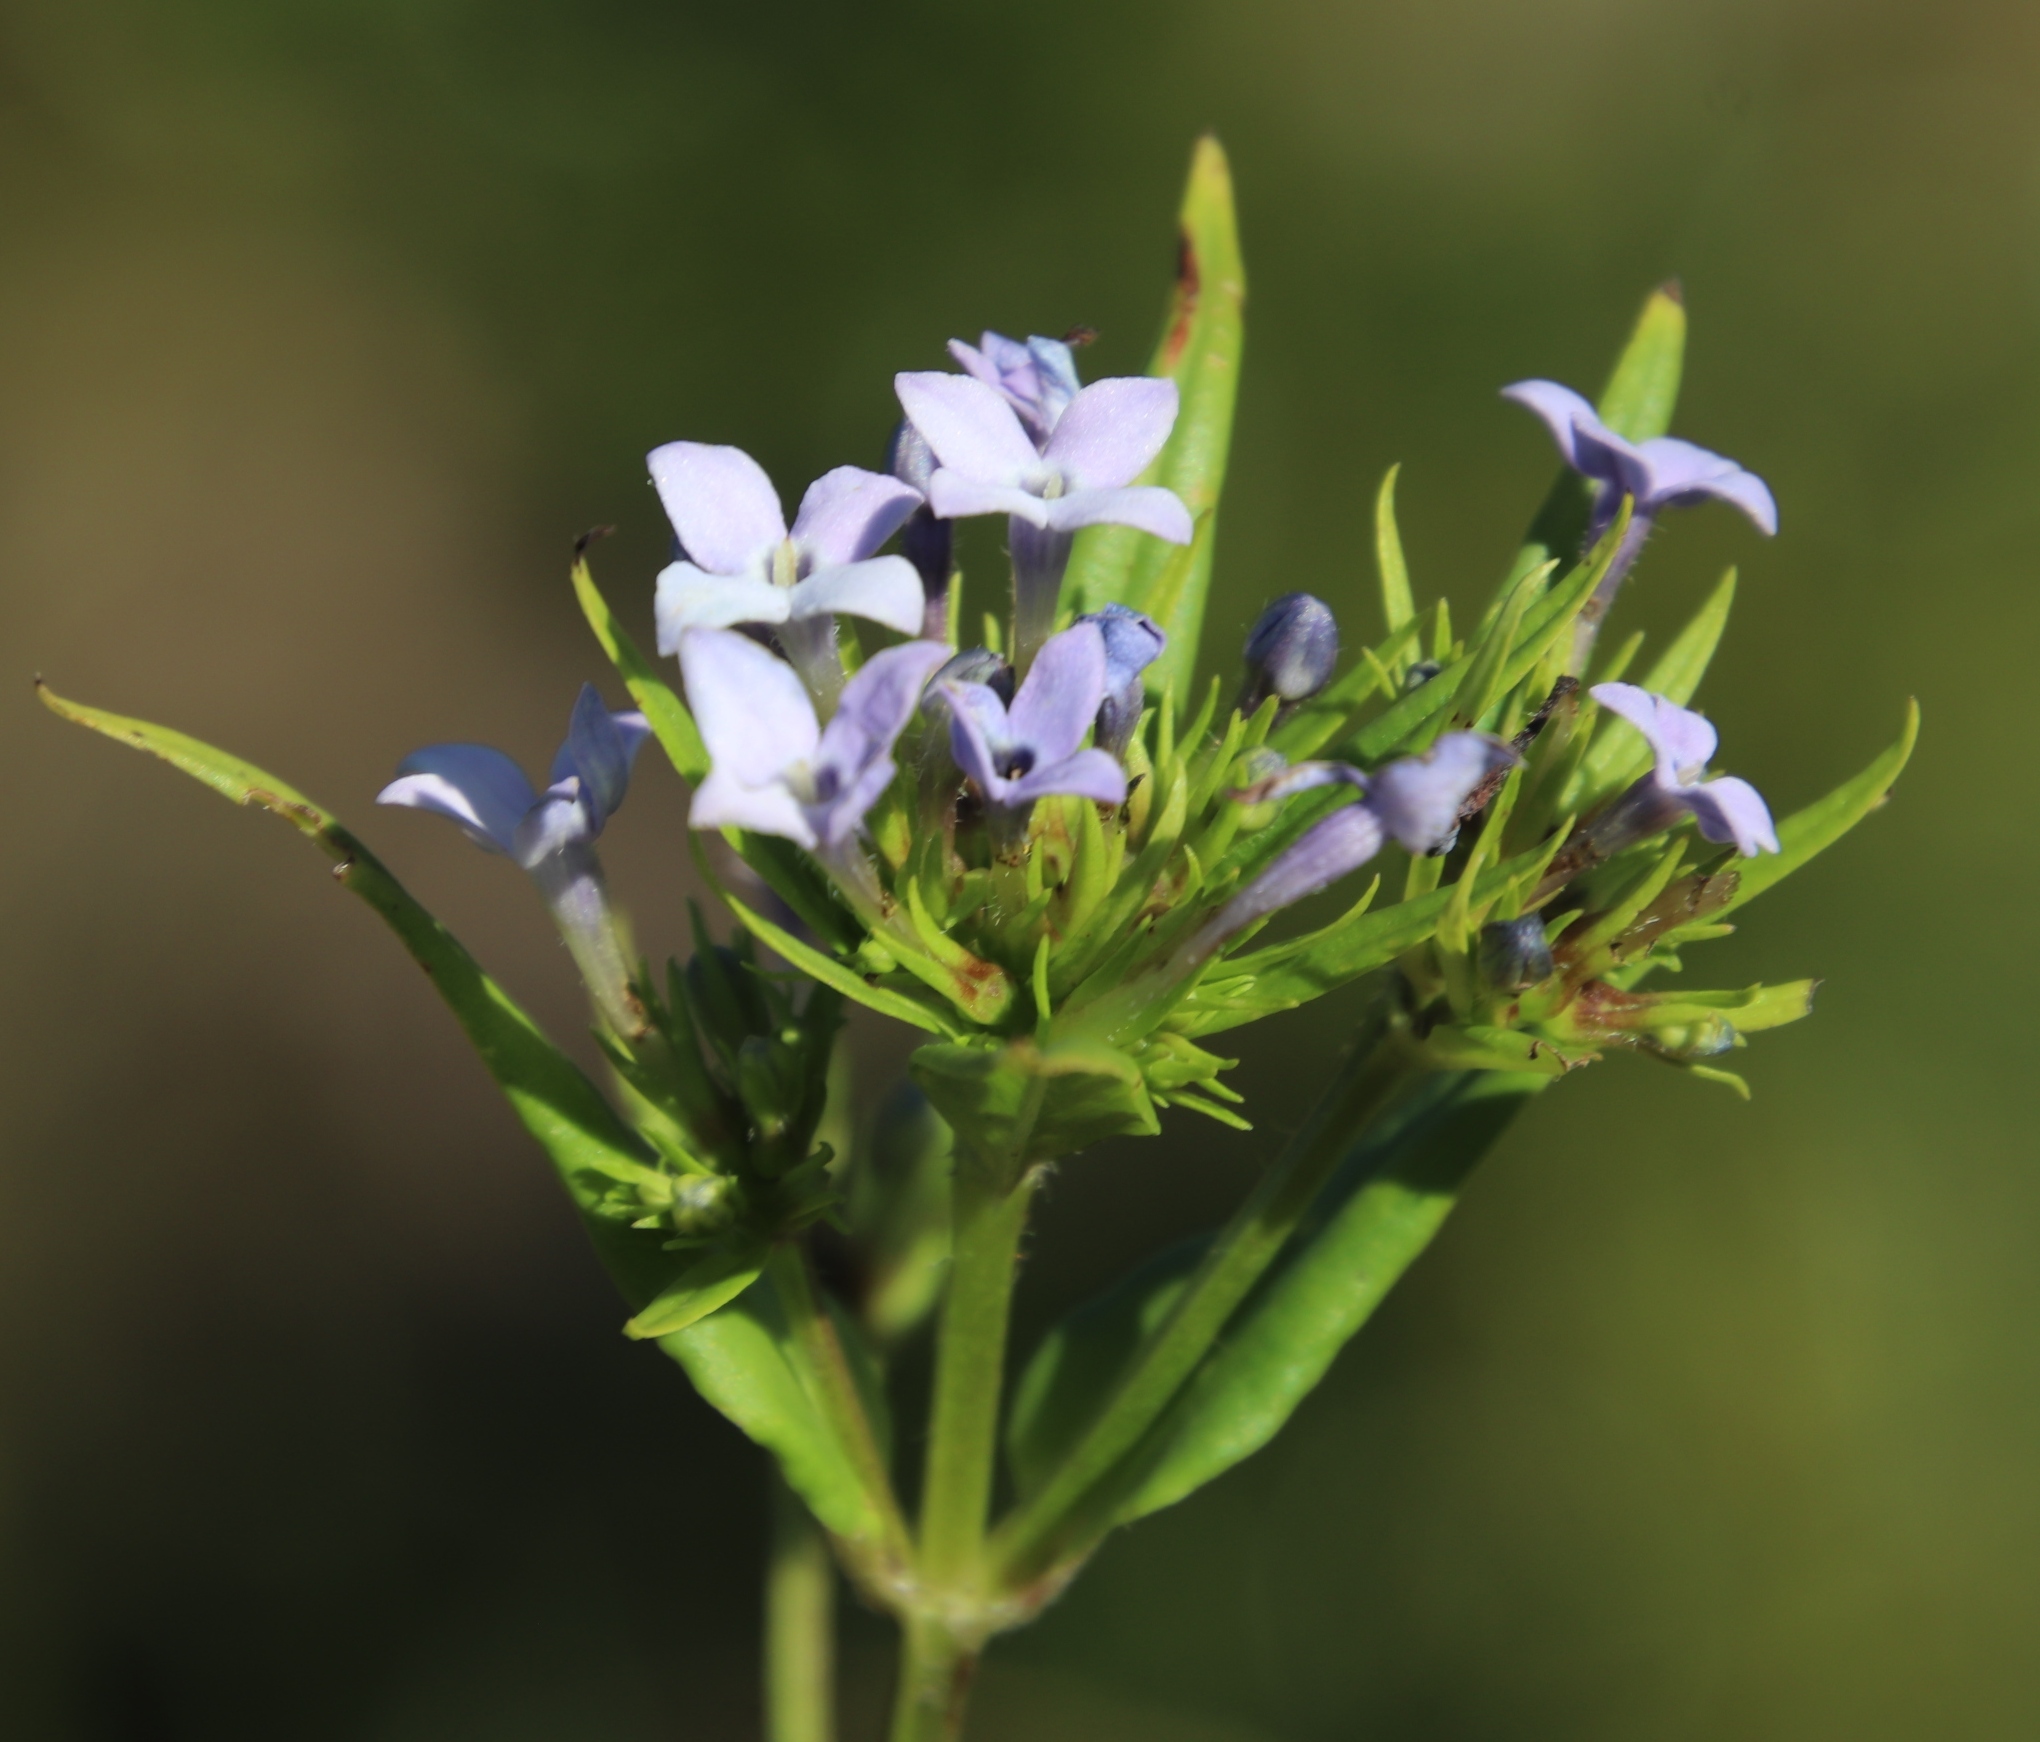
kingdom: Plantae
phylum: Tracheophyta
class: Magnoliopsida
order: Gentianales
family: Rubiaceae
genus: Conostomium
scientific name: Conostomium natalense
